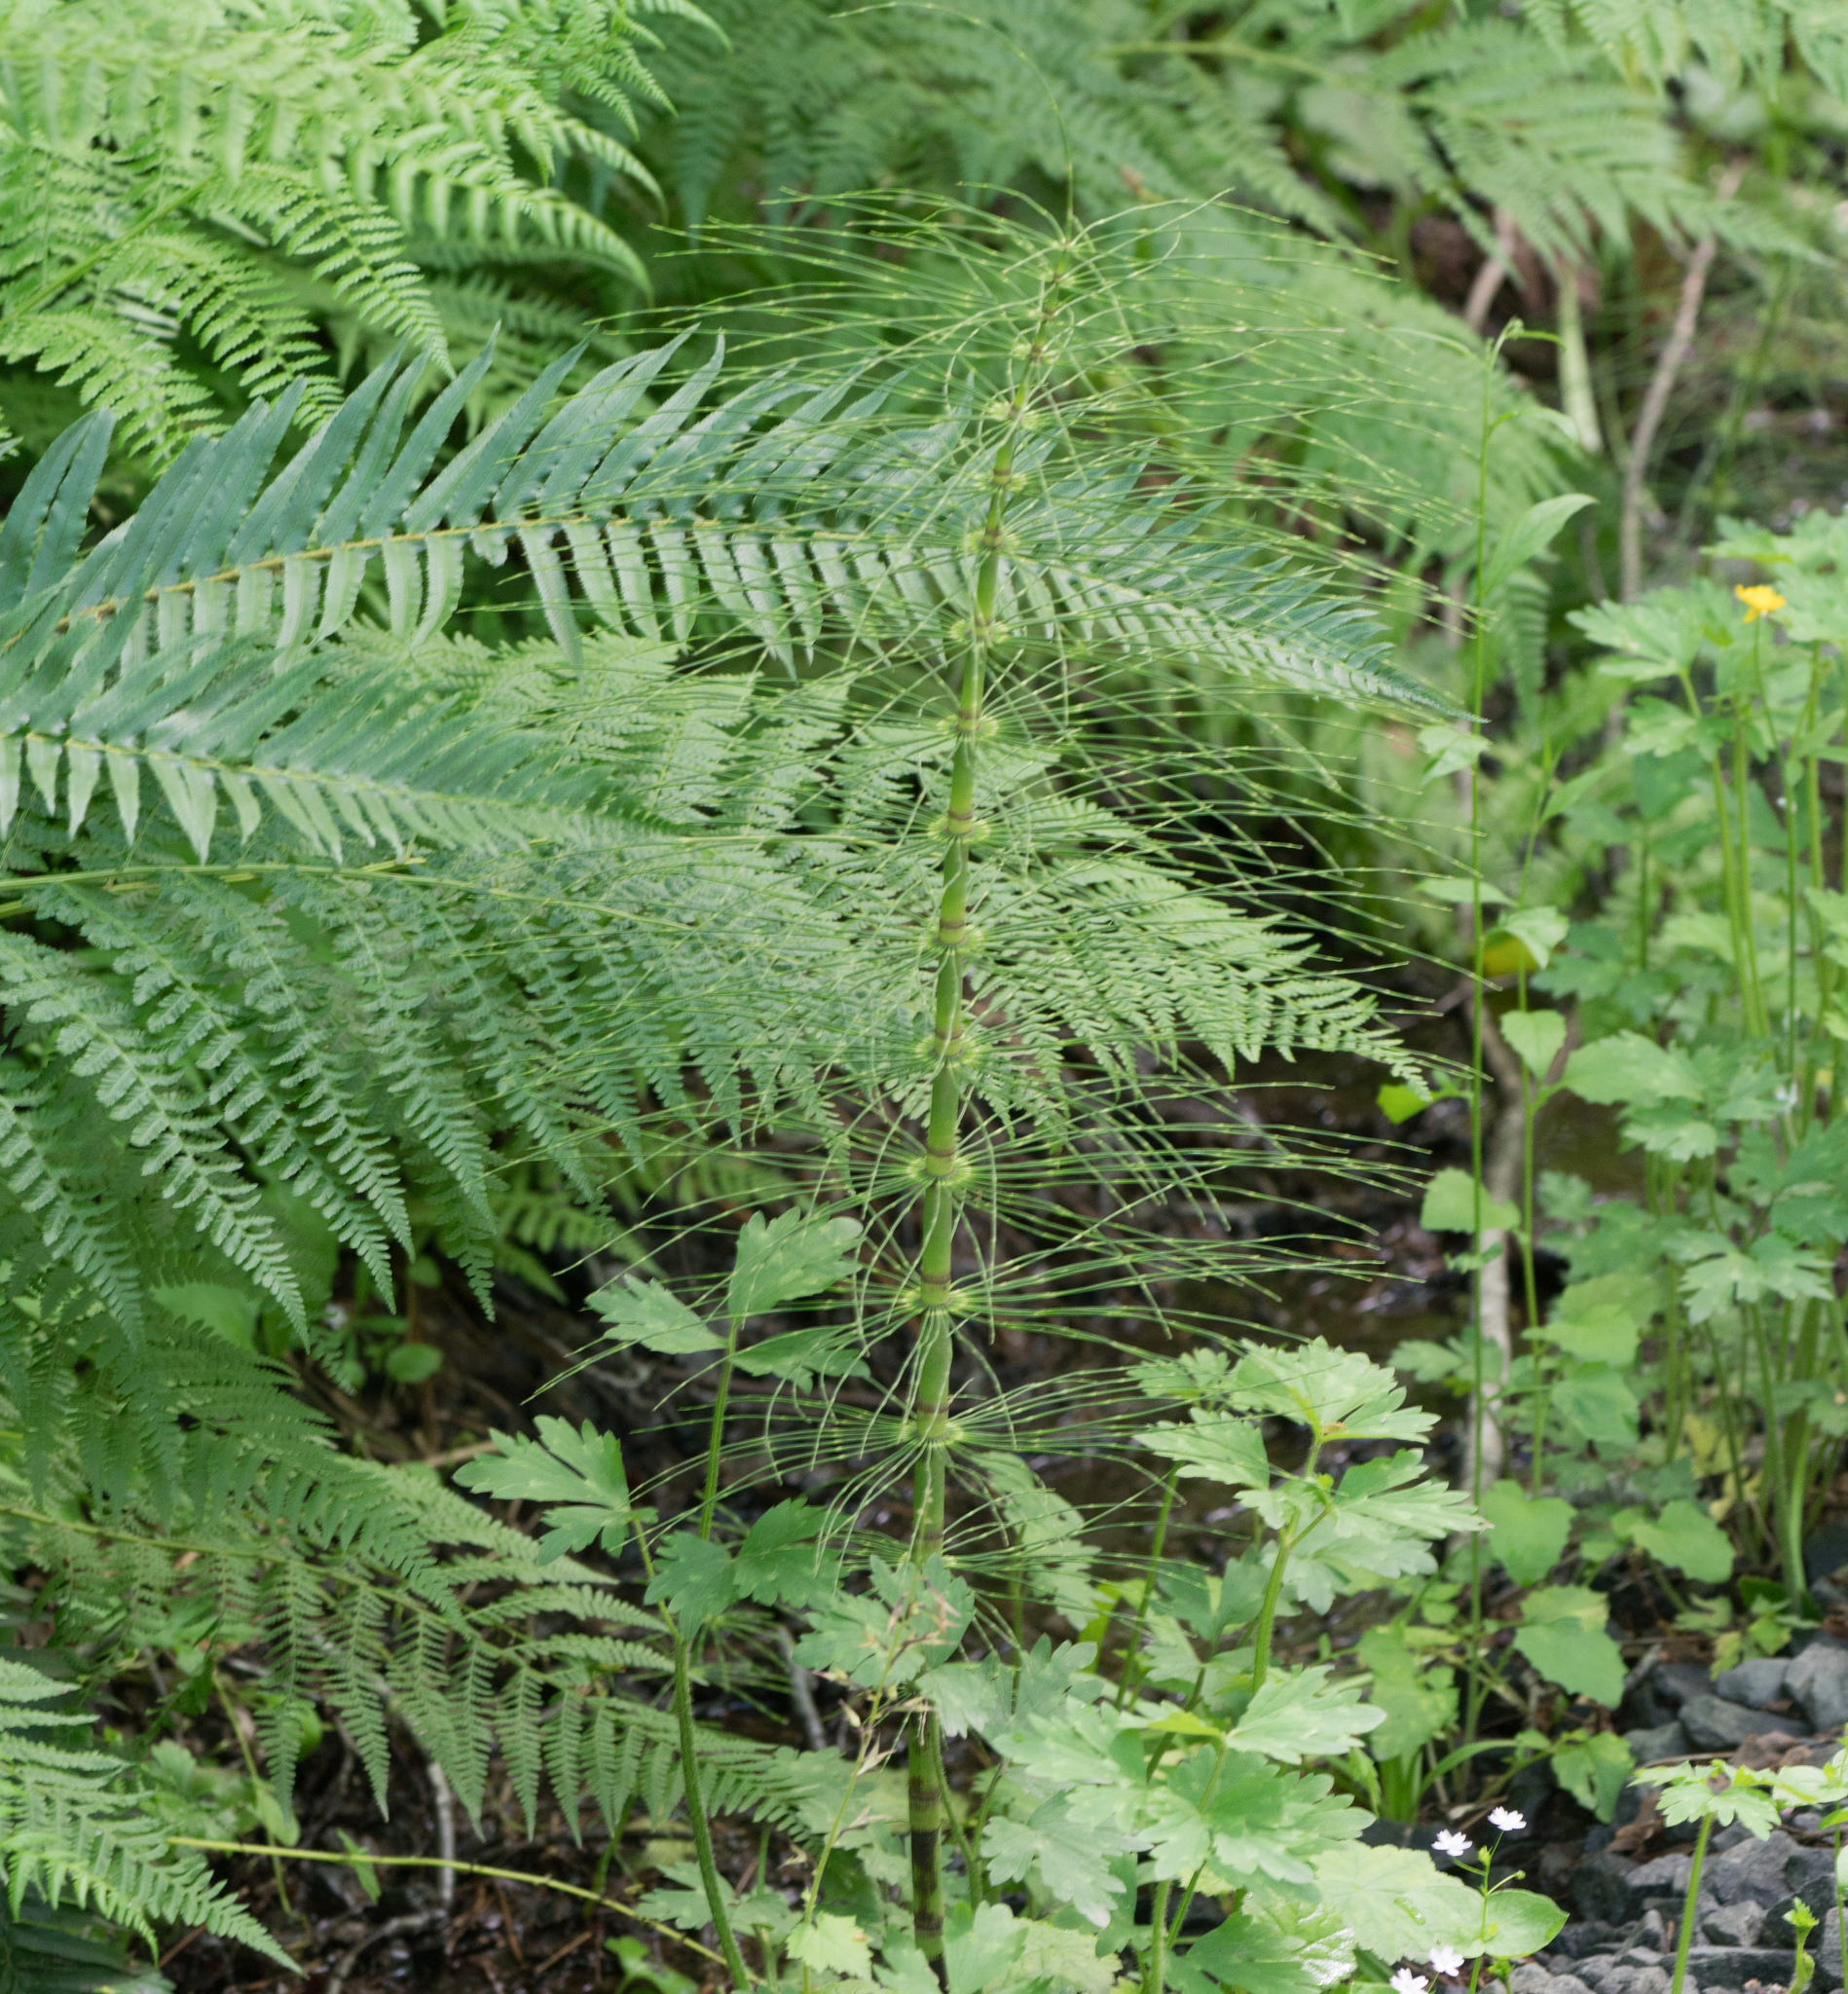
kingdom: Plantae
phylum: Tracheophyta
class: Polypodiopsida
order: Equisetales
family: Equisetaceae
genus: Equisetum
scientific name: Equisetum braunii
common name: Braun's horsetail
